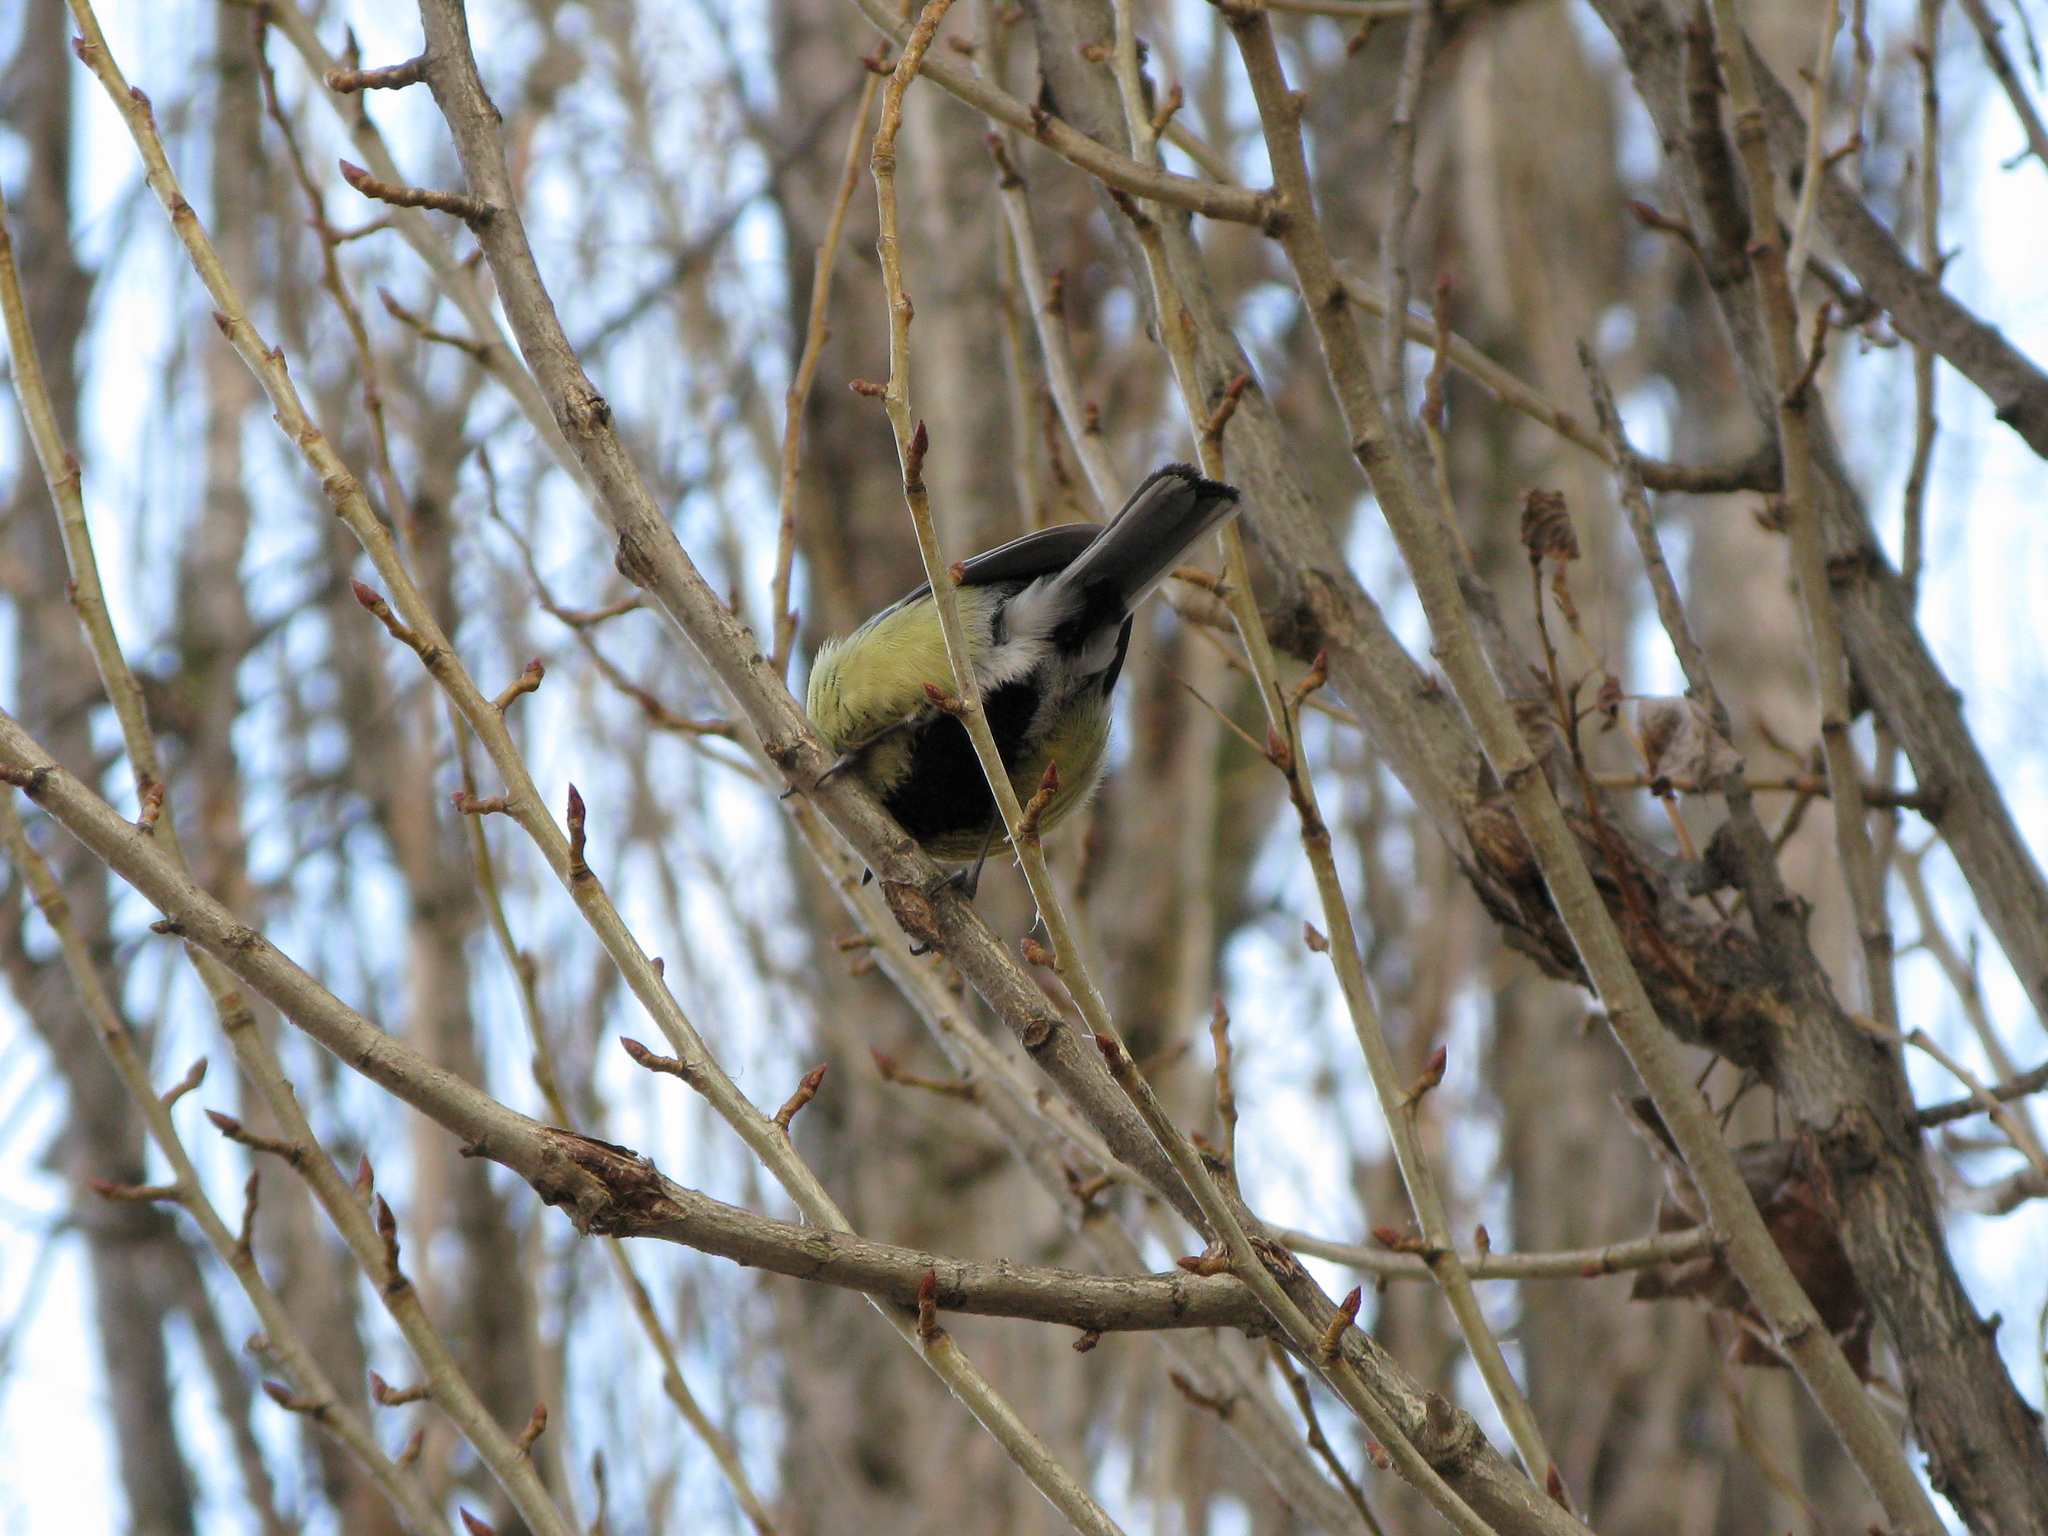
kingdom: Animalia
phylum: Chordata
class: Aves
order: Passeriformes
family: Paridae
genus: Parus
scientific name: Parus major
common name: Great tit
